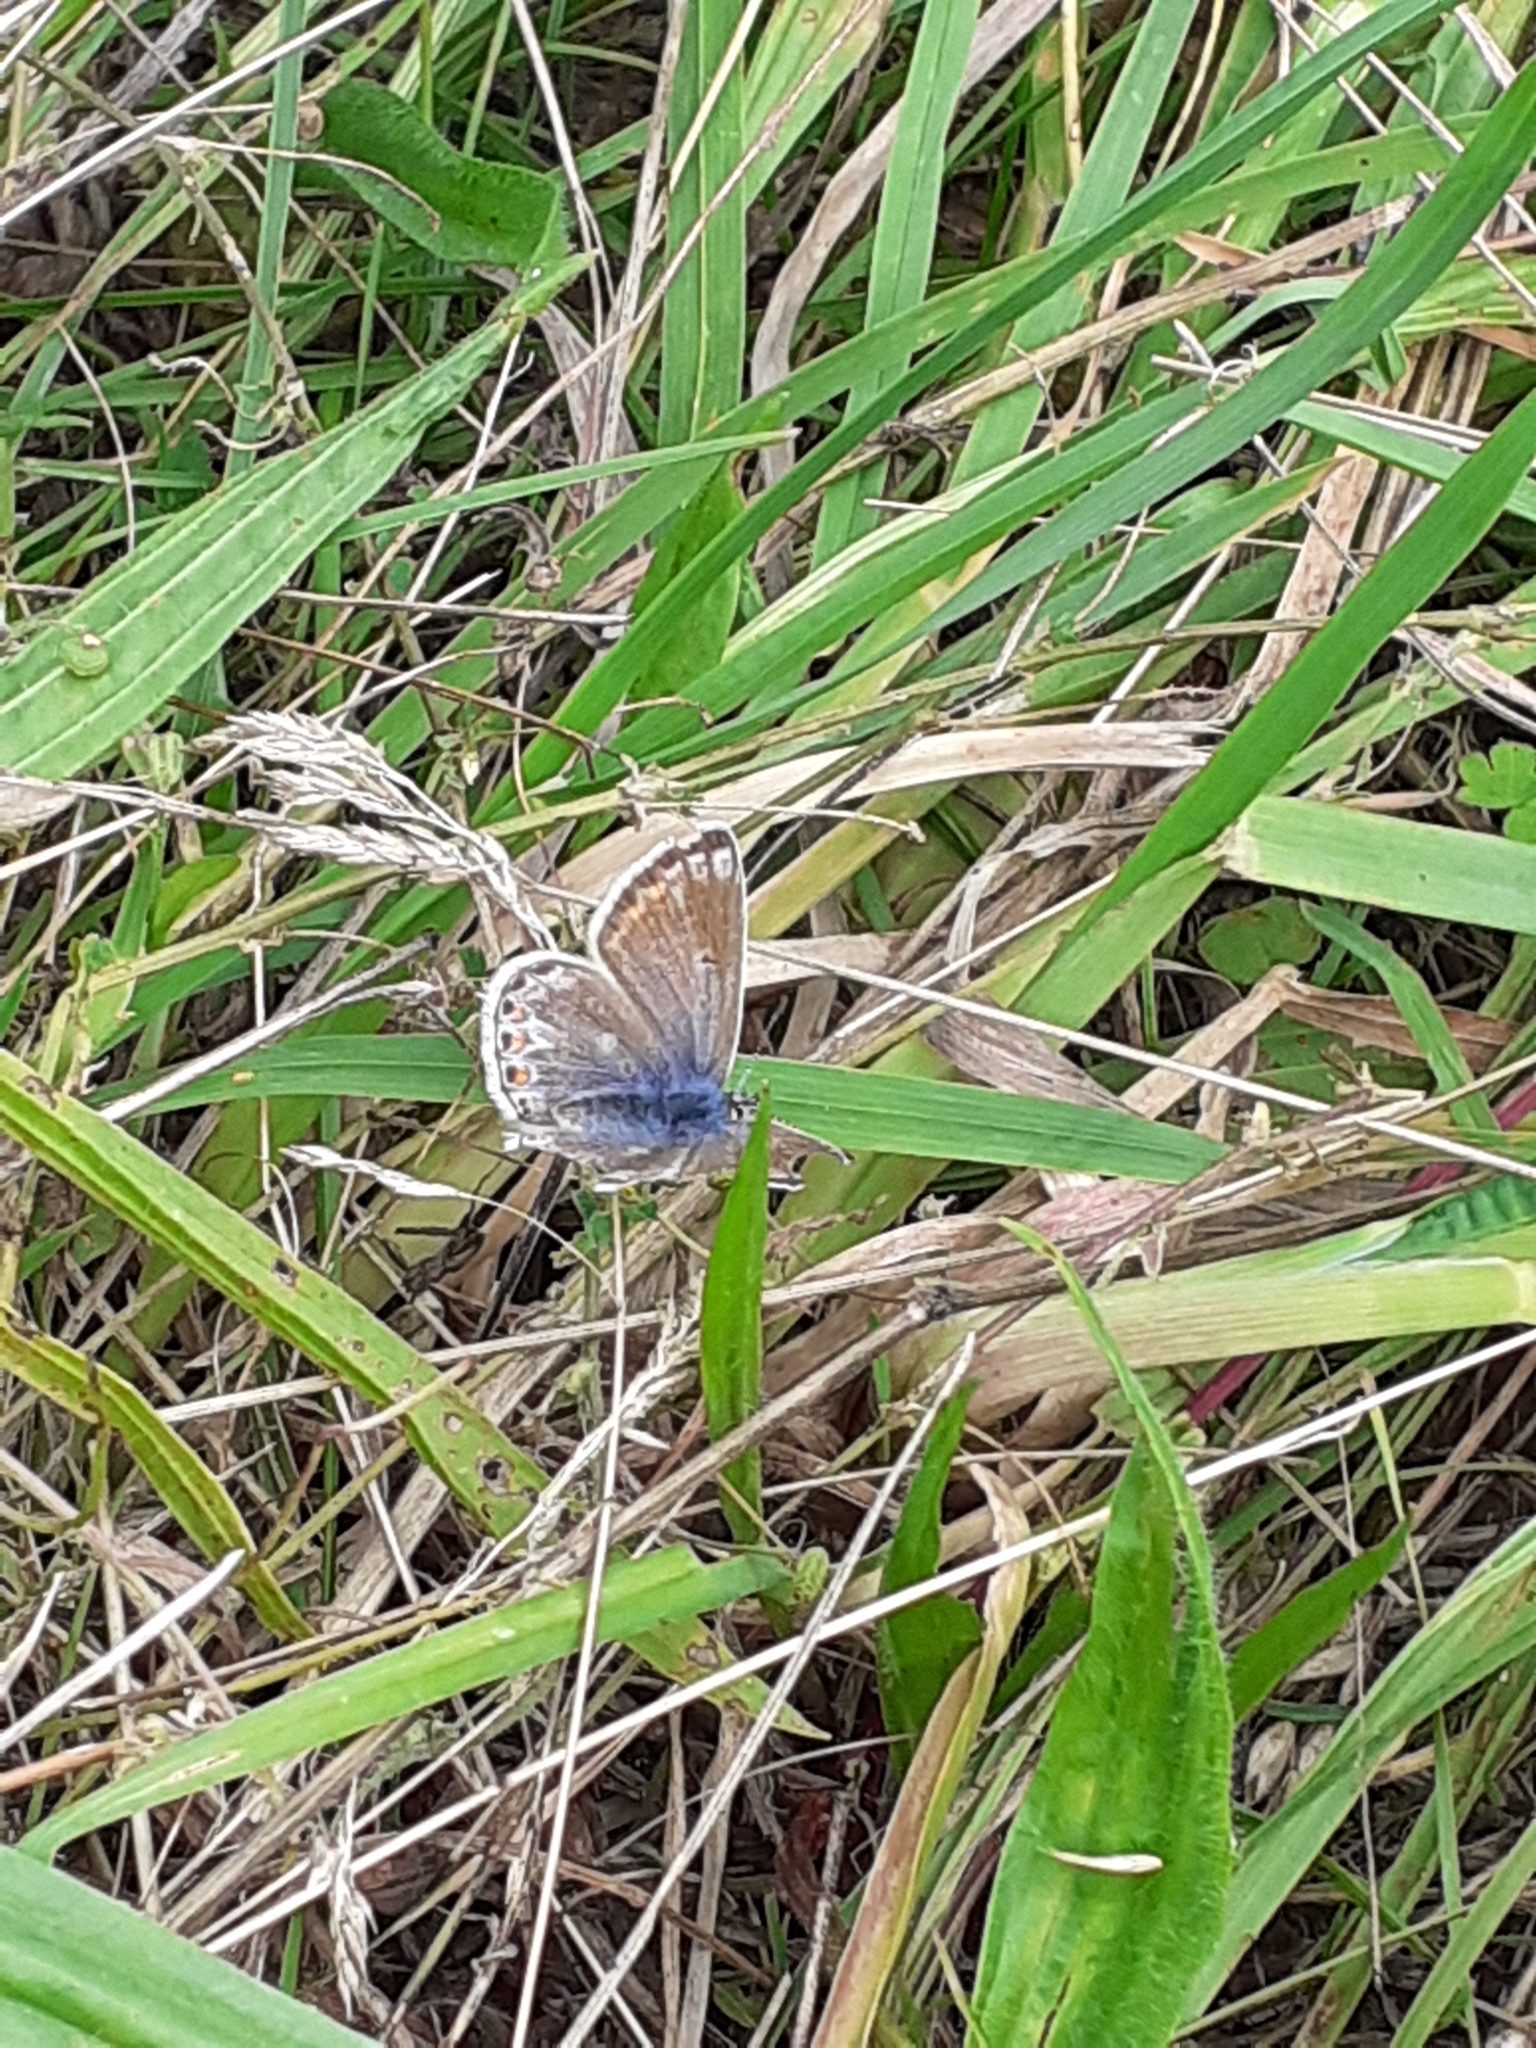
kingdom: Animalia
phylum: Arthropoda
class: Insecta
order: Lepidoptera
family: Lycaenidae
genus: Polyommatus
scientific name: Polyommatus icarus
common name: Common blue
